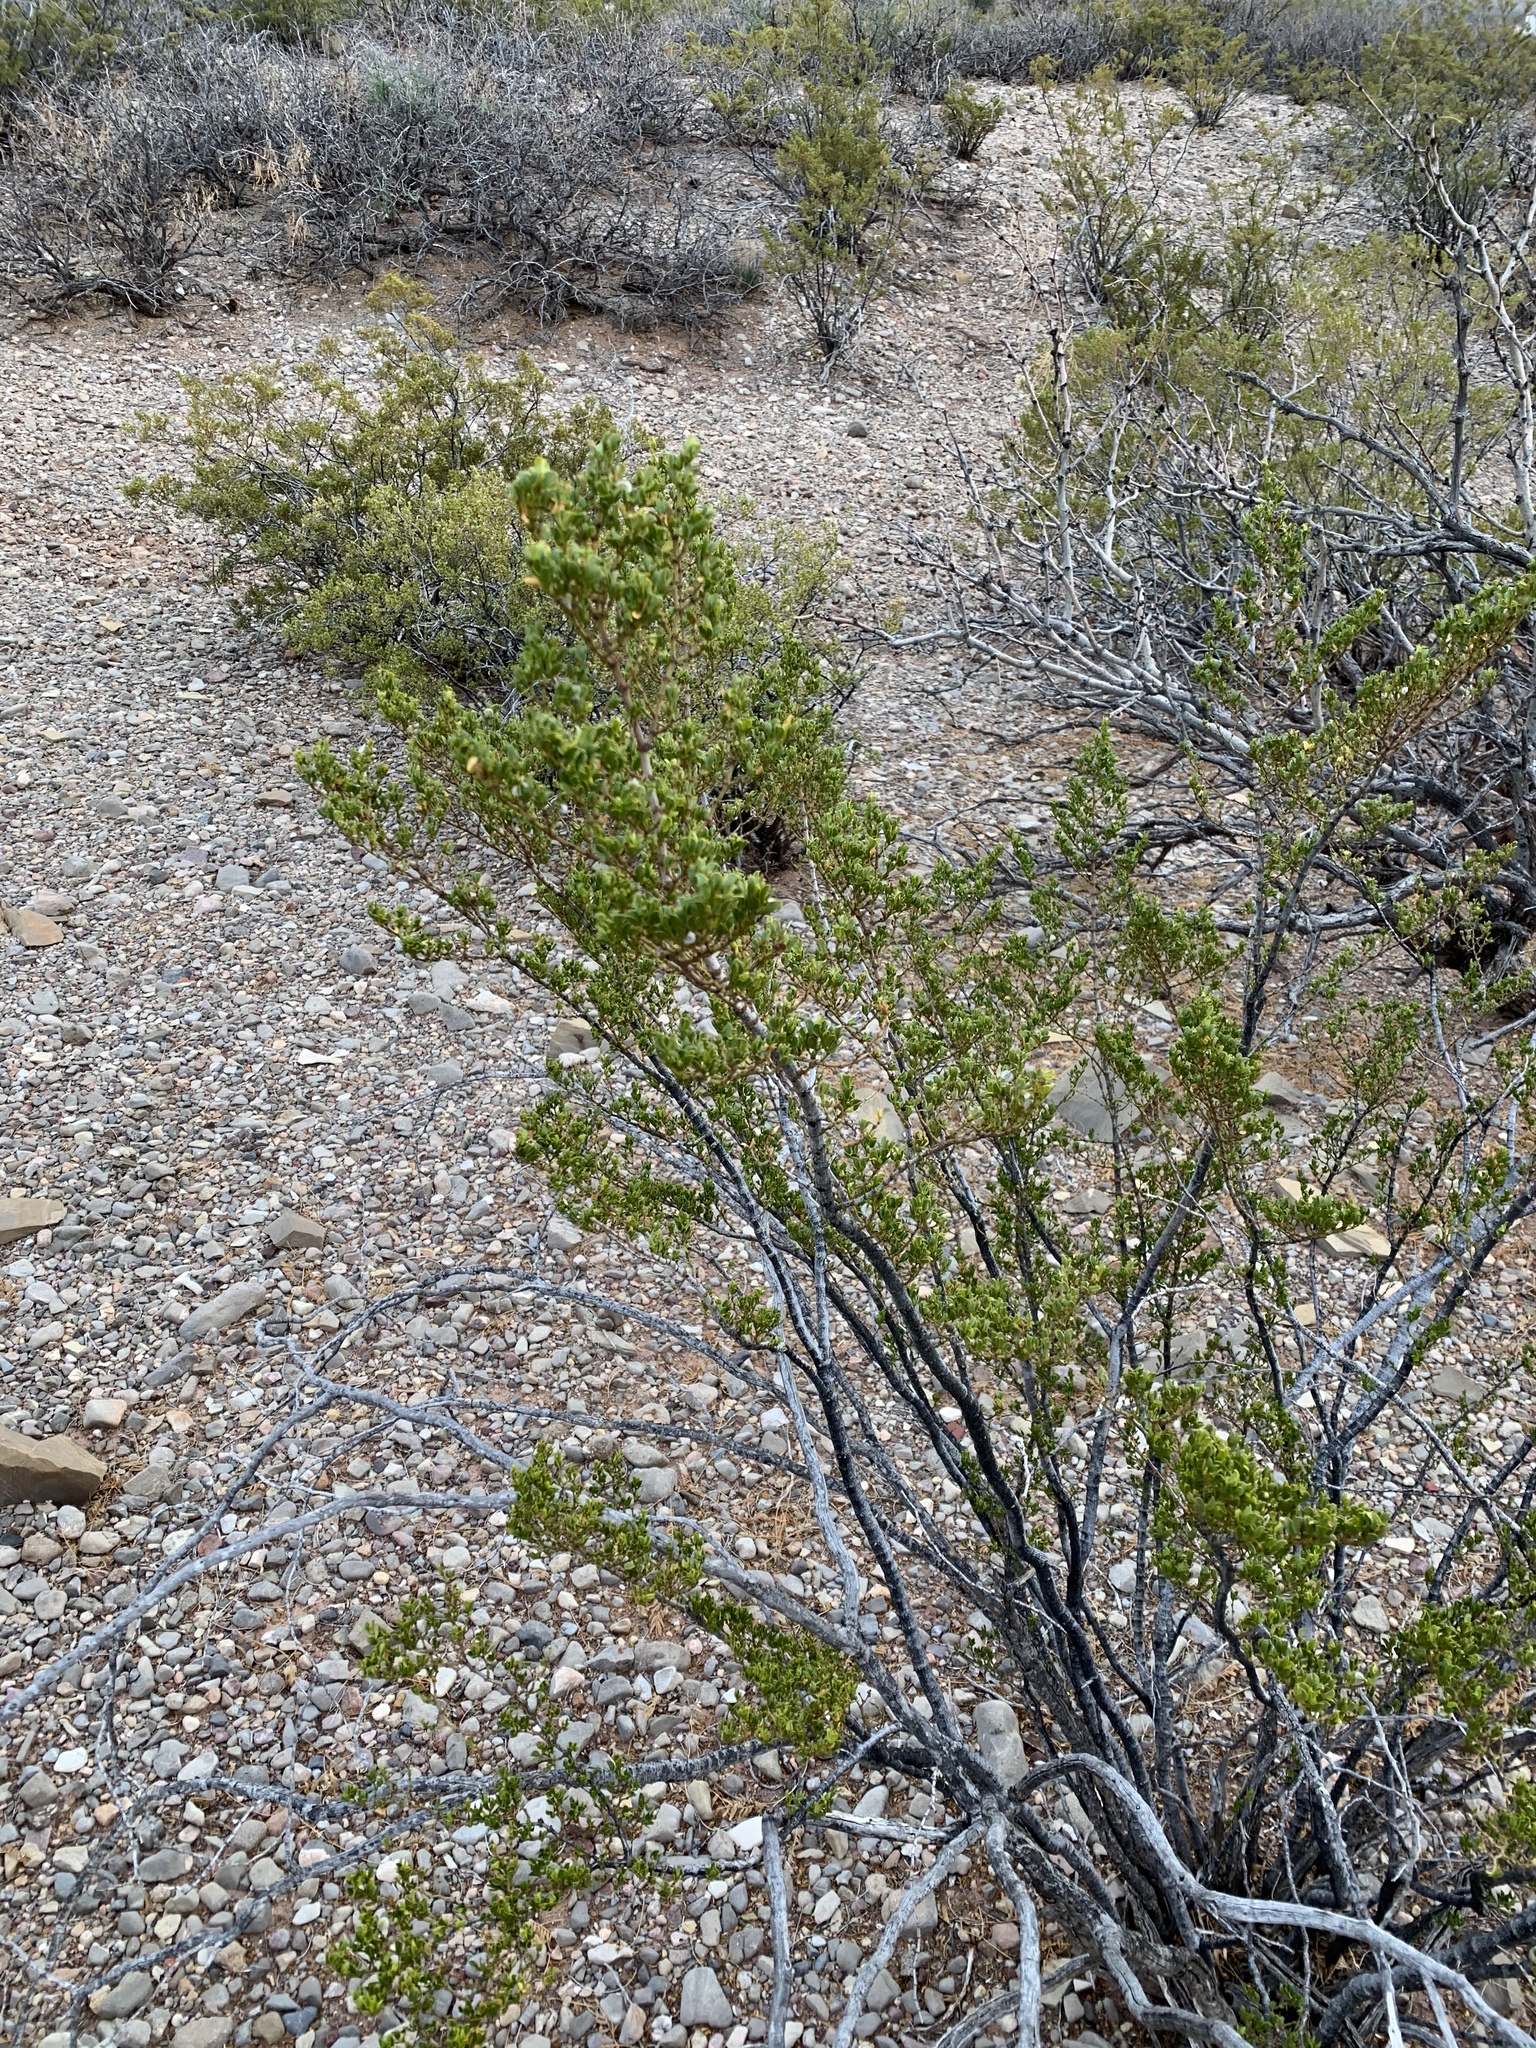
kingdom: Plantae
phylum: Tracheophyta
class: Magnoliopsida
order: Zygophyllales
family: Zygophyllaceae
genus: Larrea
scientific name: Larrea tridentata
